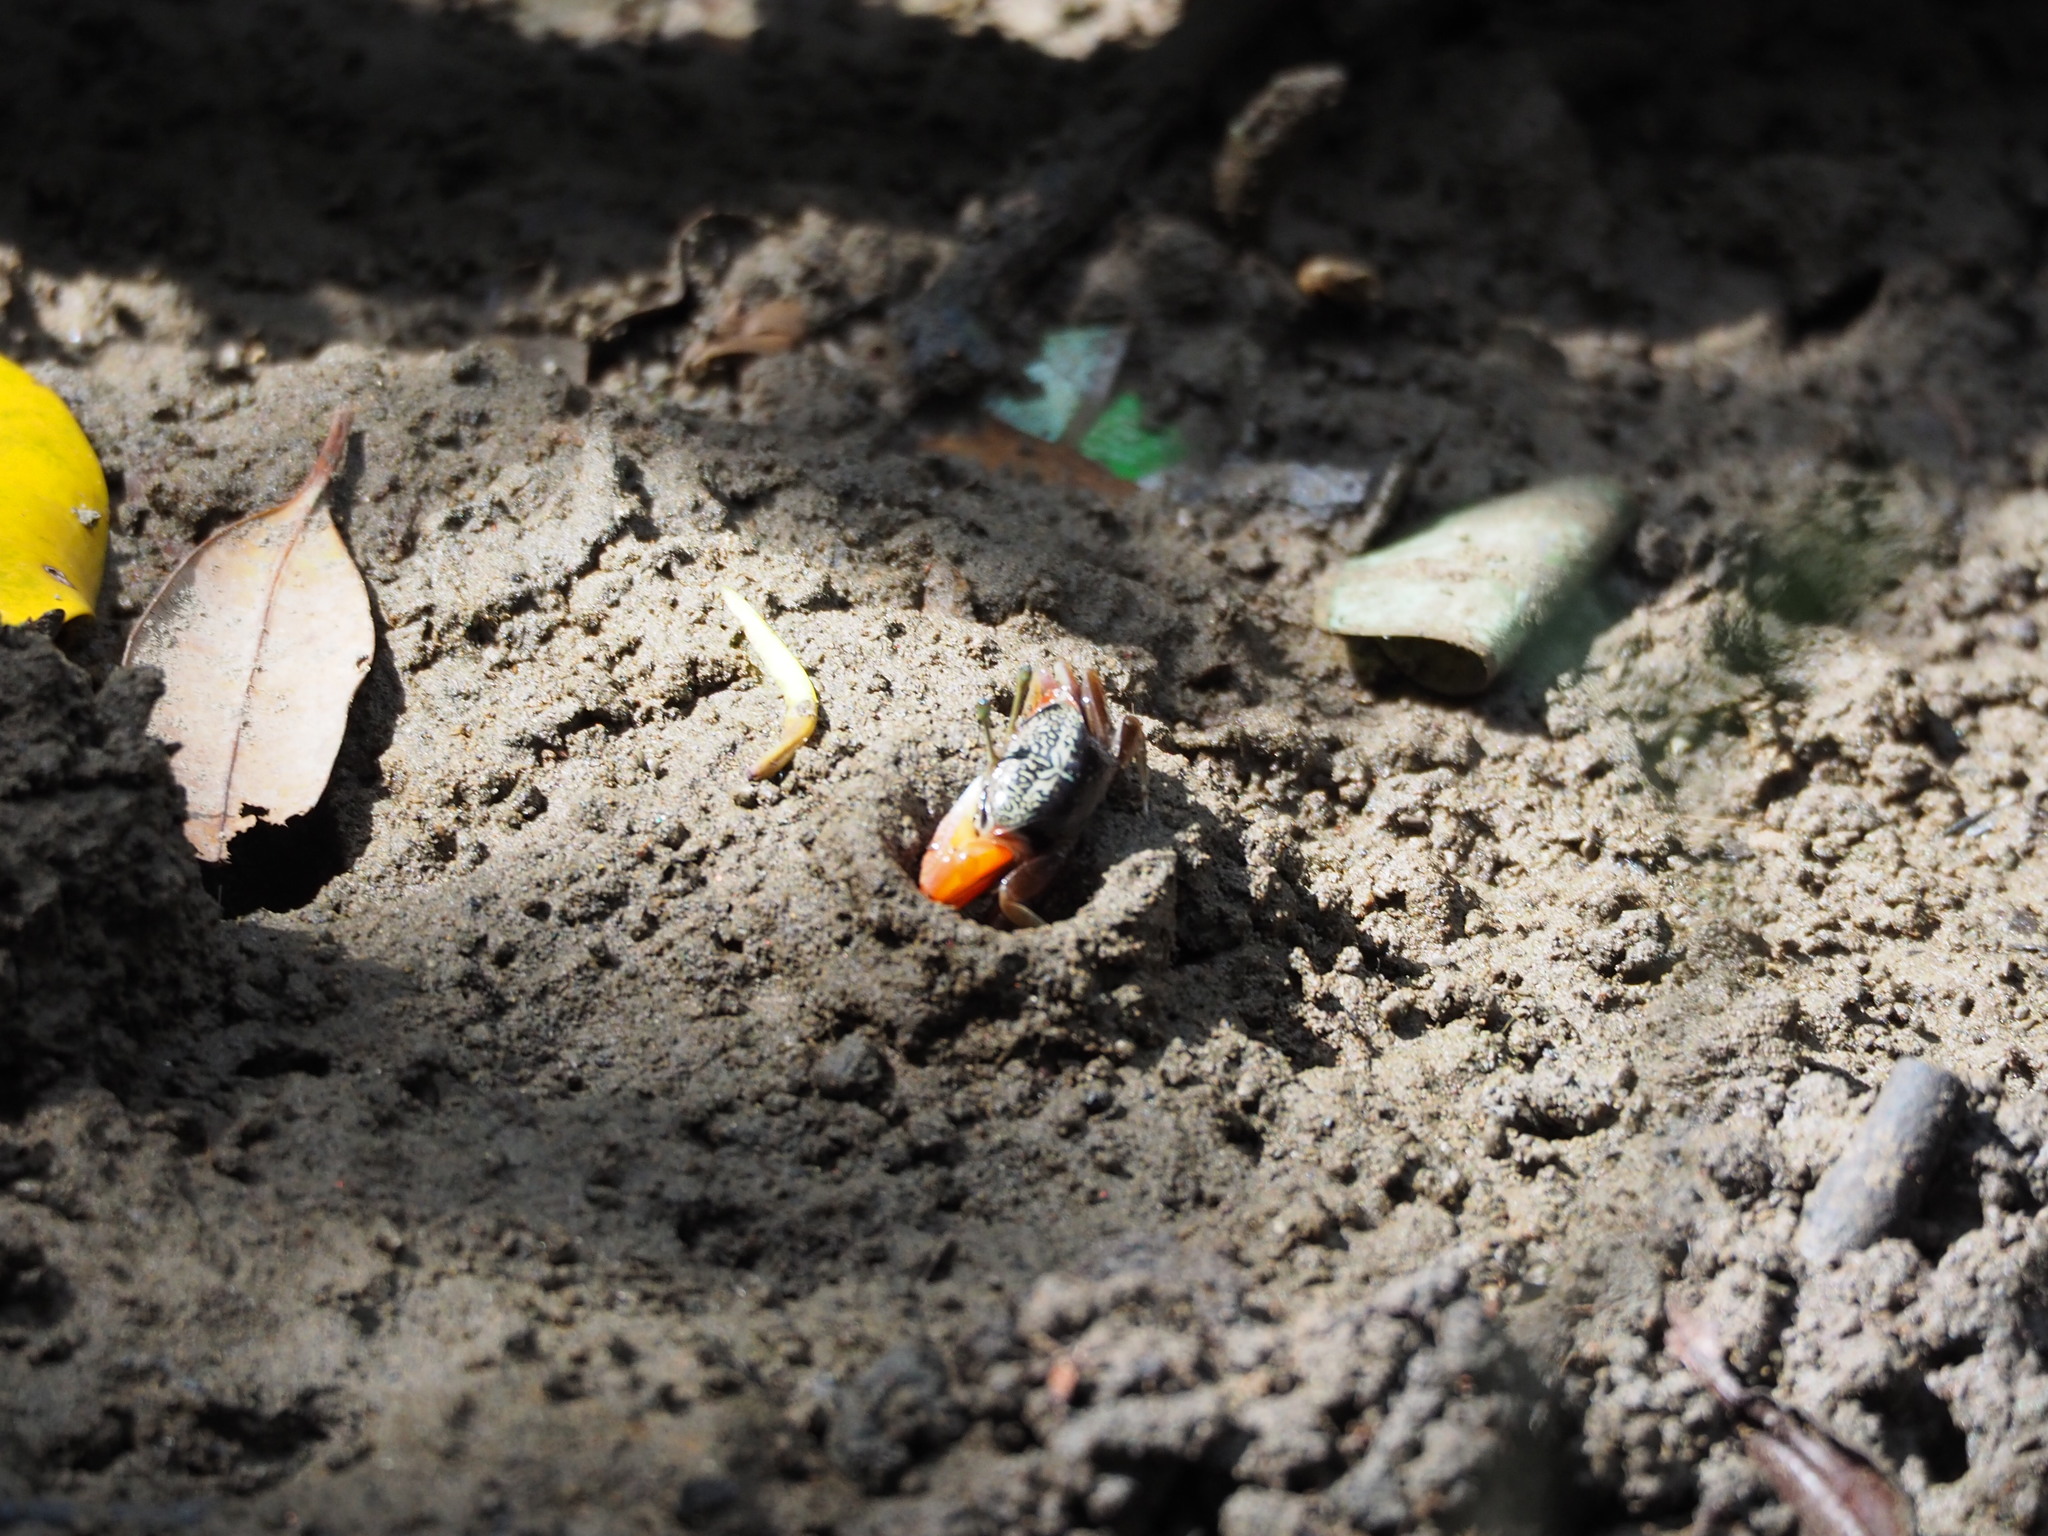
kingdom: Animalia
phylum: Arthropoda
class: Malacostraca
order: Decapoda
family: Ocypodidae
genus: Tubuca
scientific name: Tubuca arcuata
